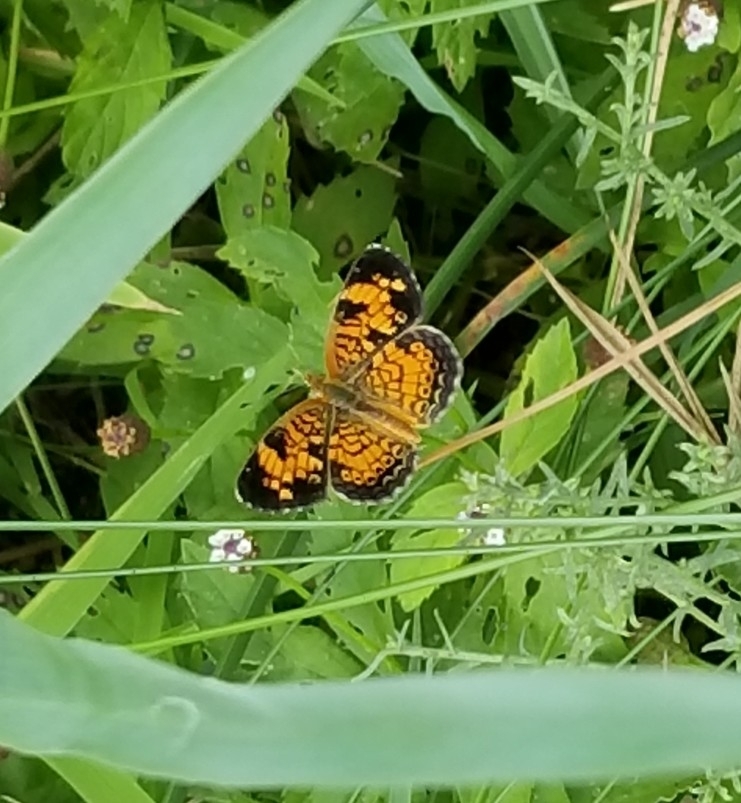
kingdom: Animalia
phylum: Arthropoda
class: Insecta
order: Lepidoptera
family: Nymphalidae
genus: Phyciodes
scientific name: Phyciodes tharos
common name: Pearl crescent
